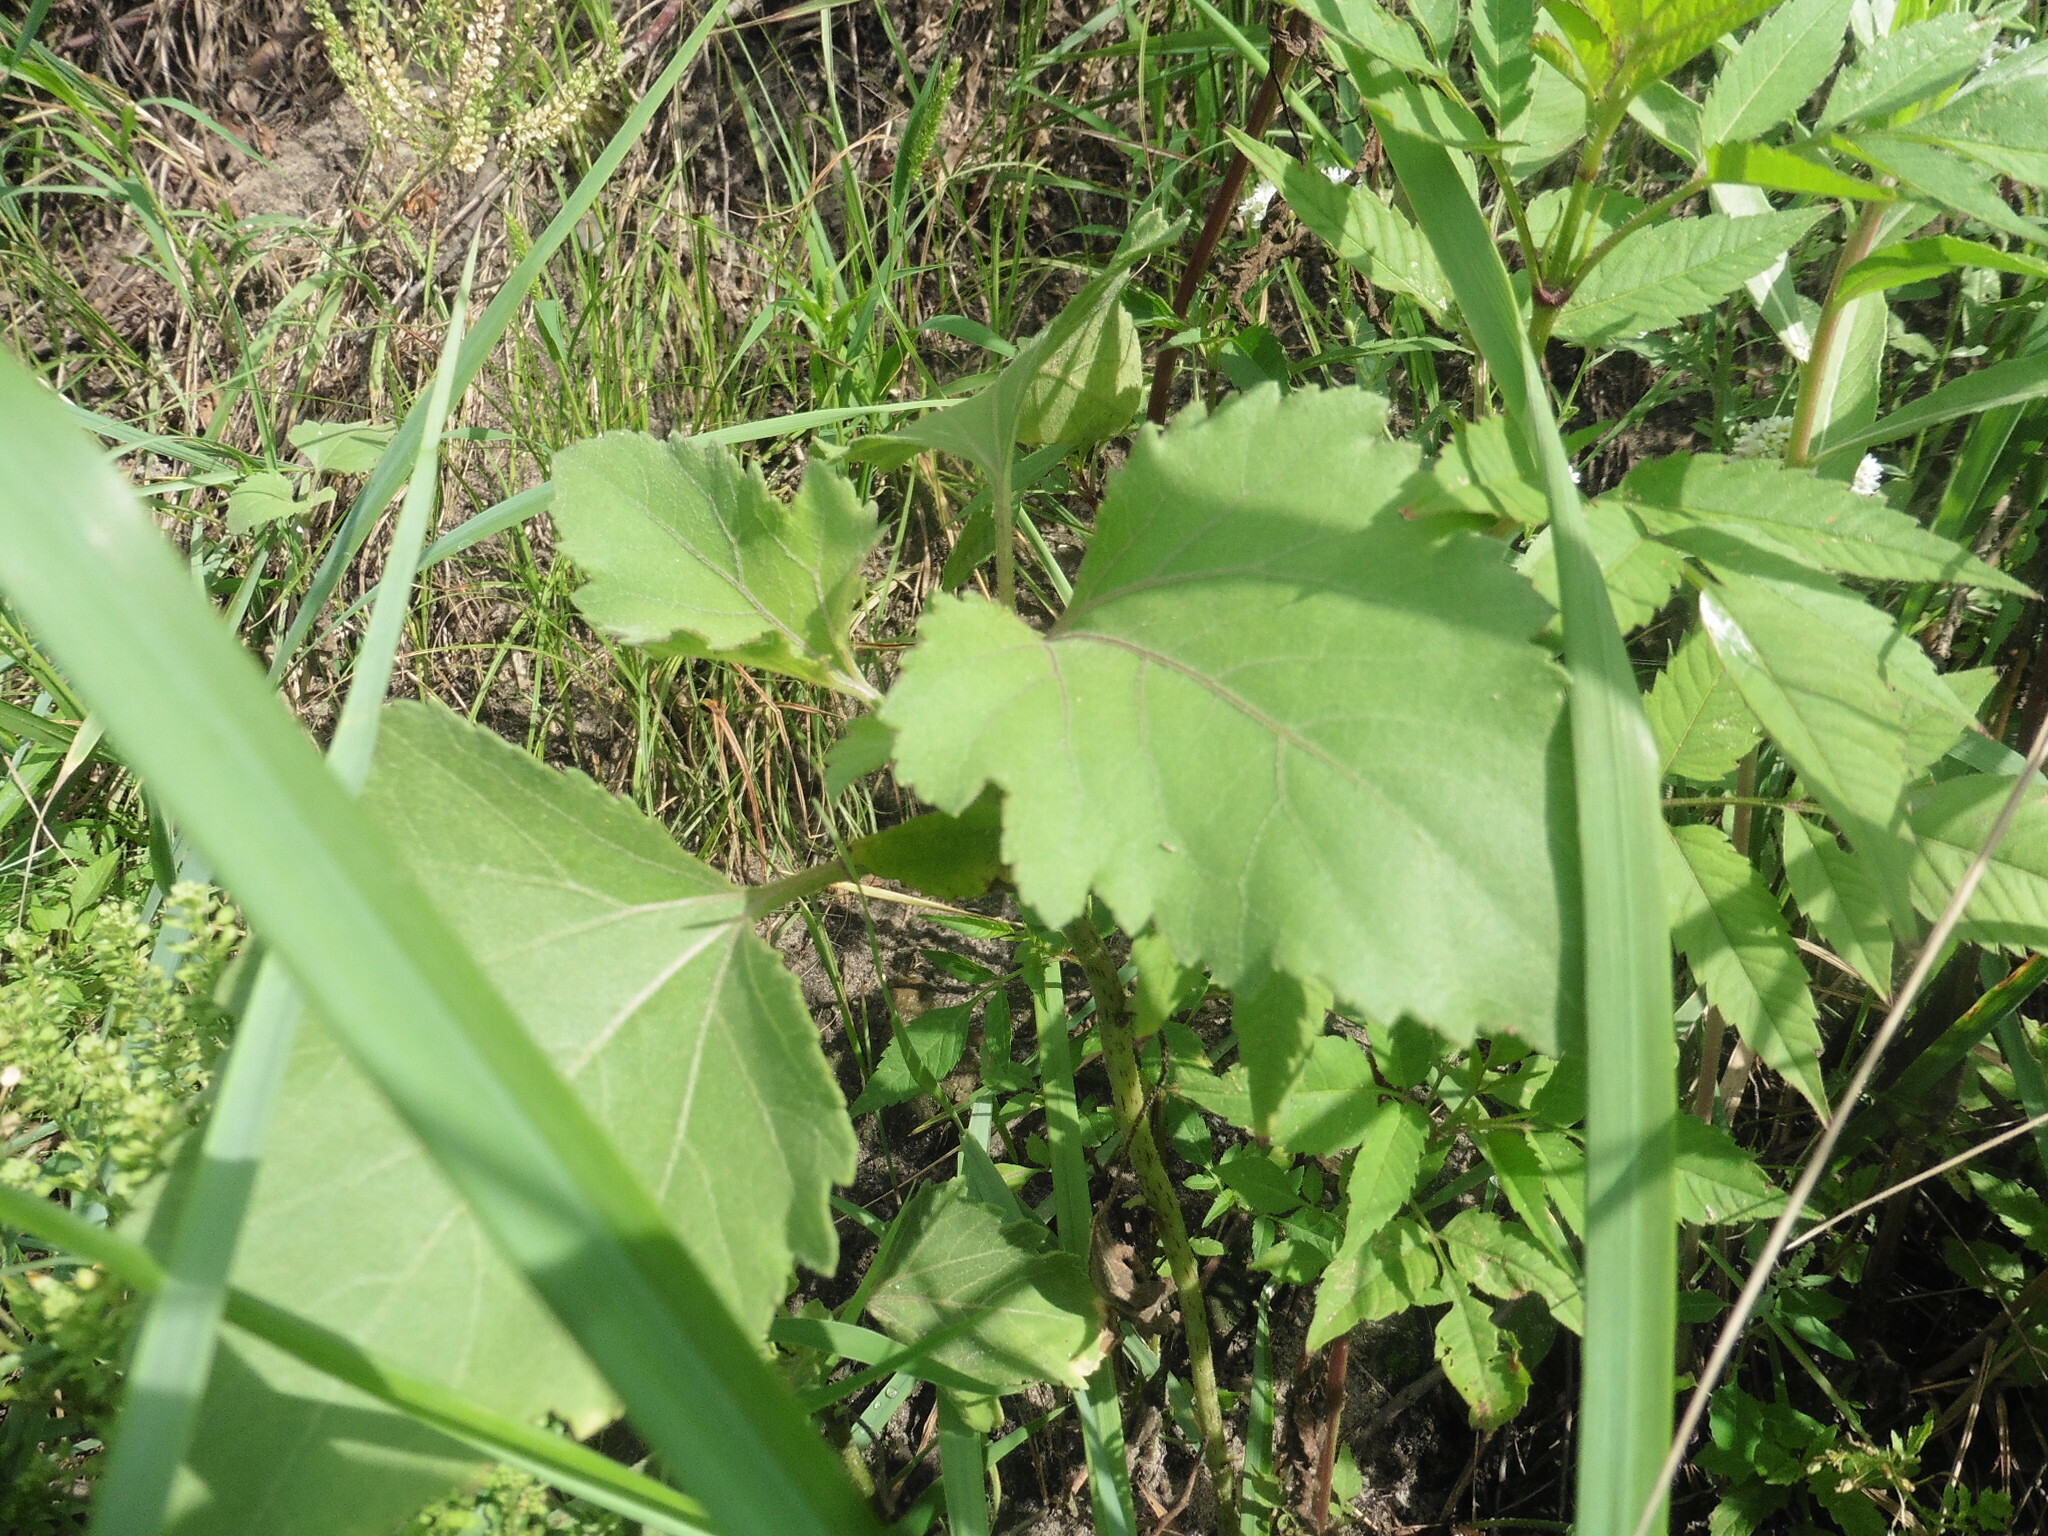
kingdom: Plantae
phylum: Tracheophyta
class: Magnoliopsida
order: Asterales
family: Asteraceae
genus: Xanthium
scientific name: Xanthium orientale
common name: Californian burr
